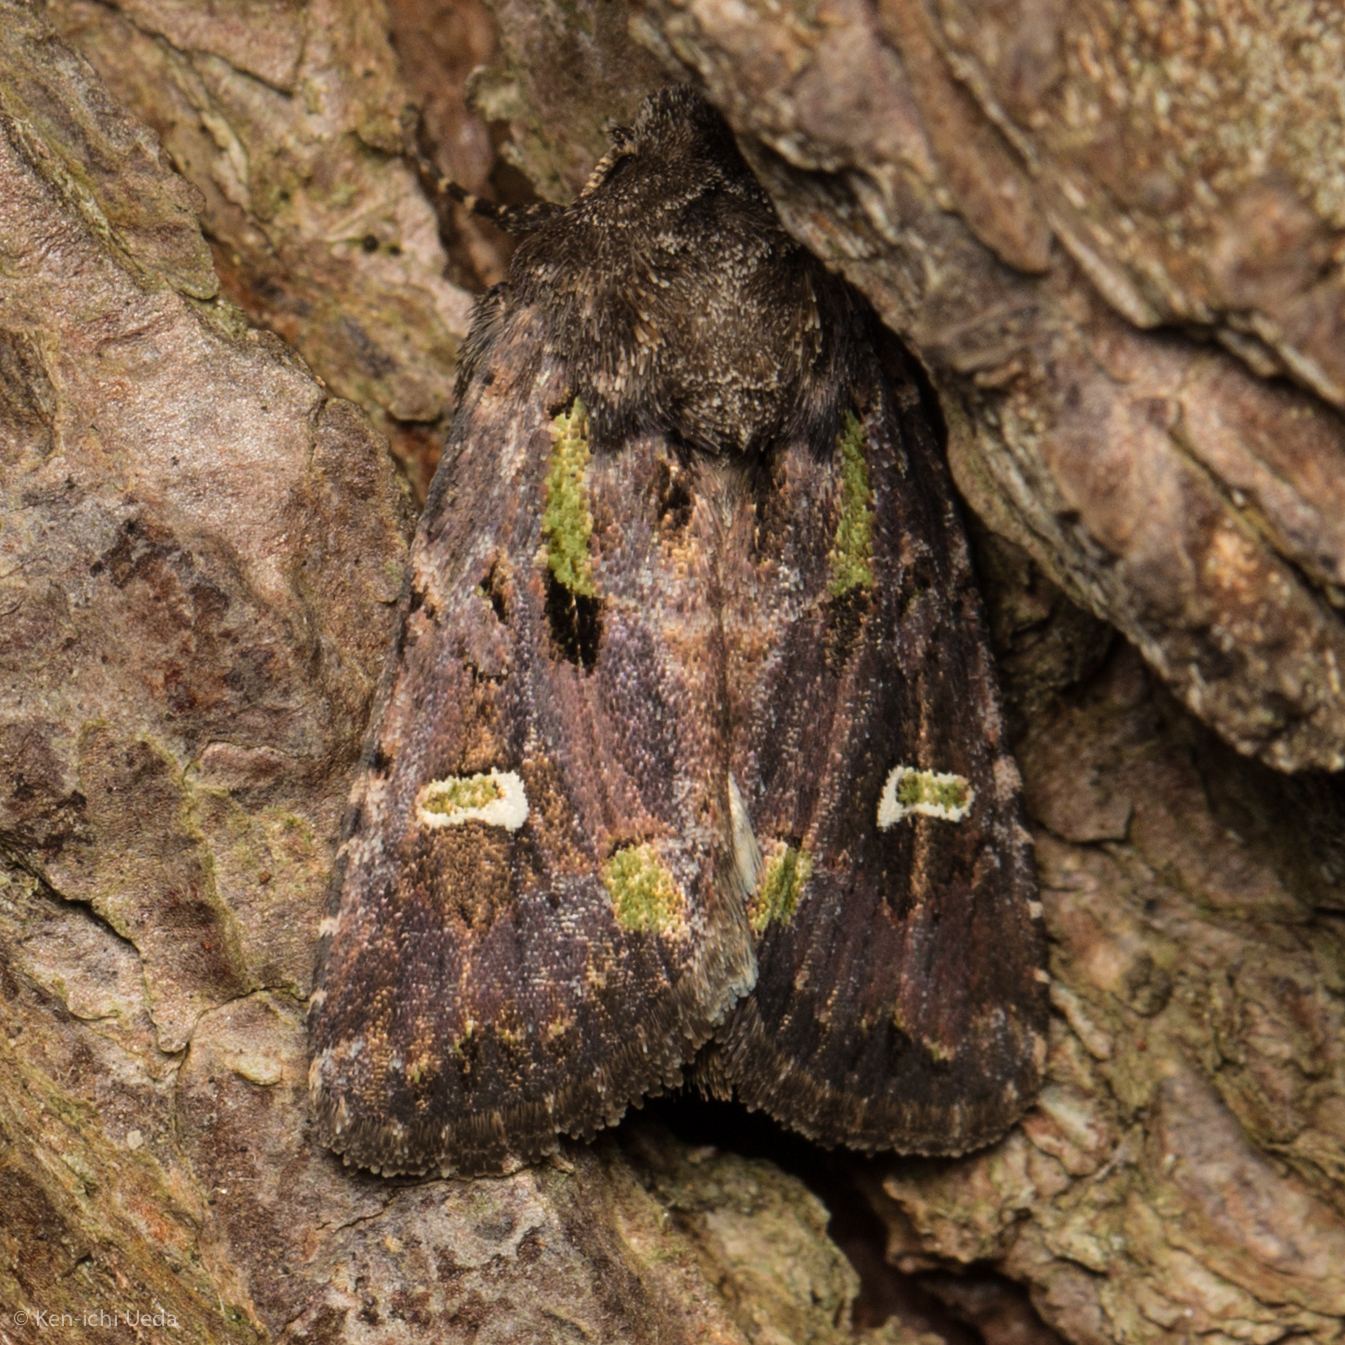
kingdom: Animalia
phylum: Arthropoda
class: Insecta
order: Lepidoptera
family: Noctuidae
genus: Lacinipolia
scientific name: Lacinipolia renigera
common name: Kidney-spotted minor
